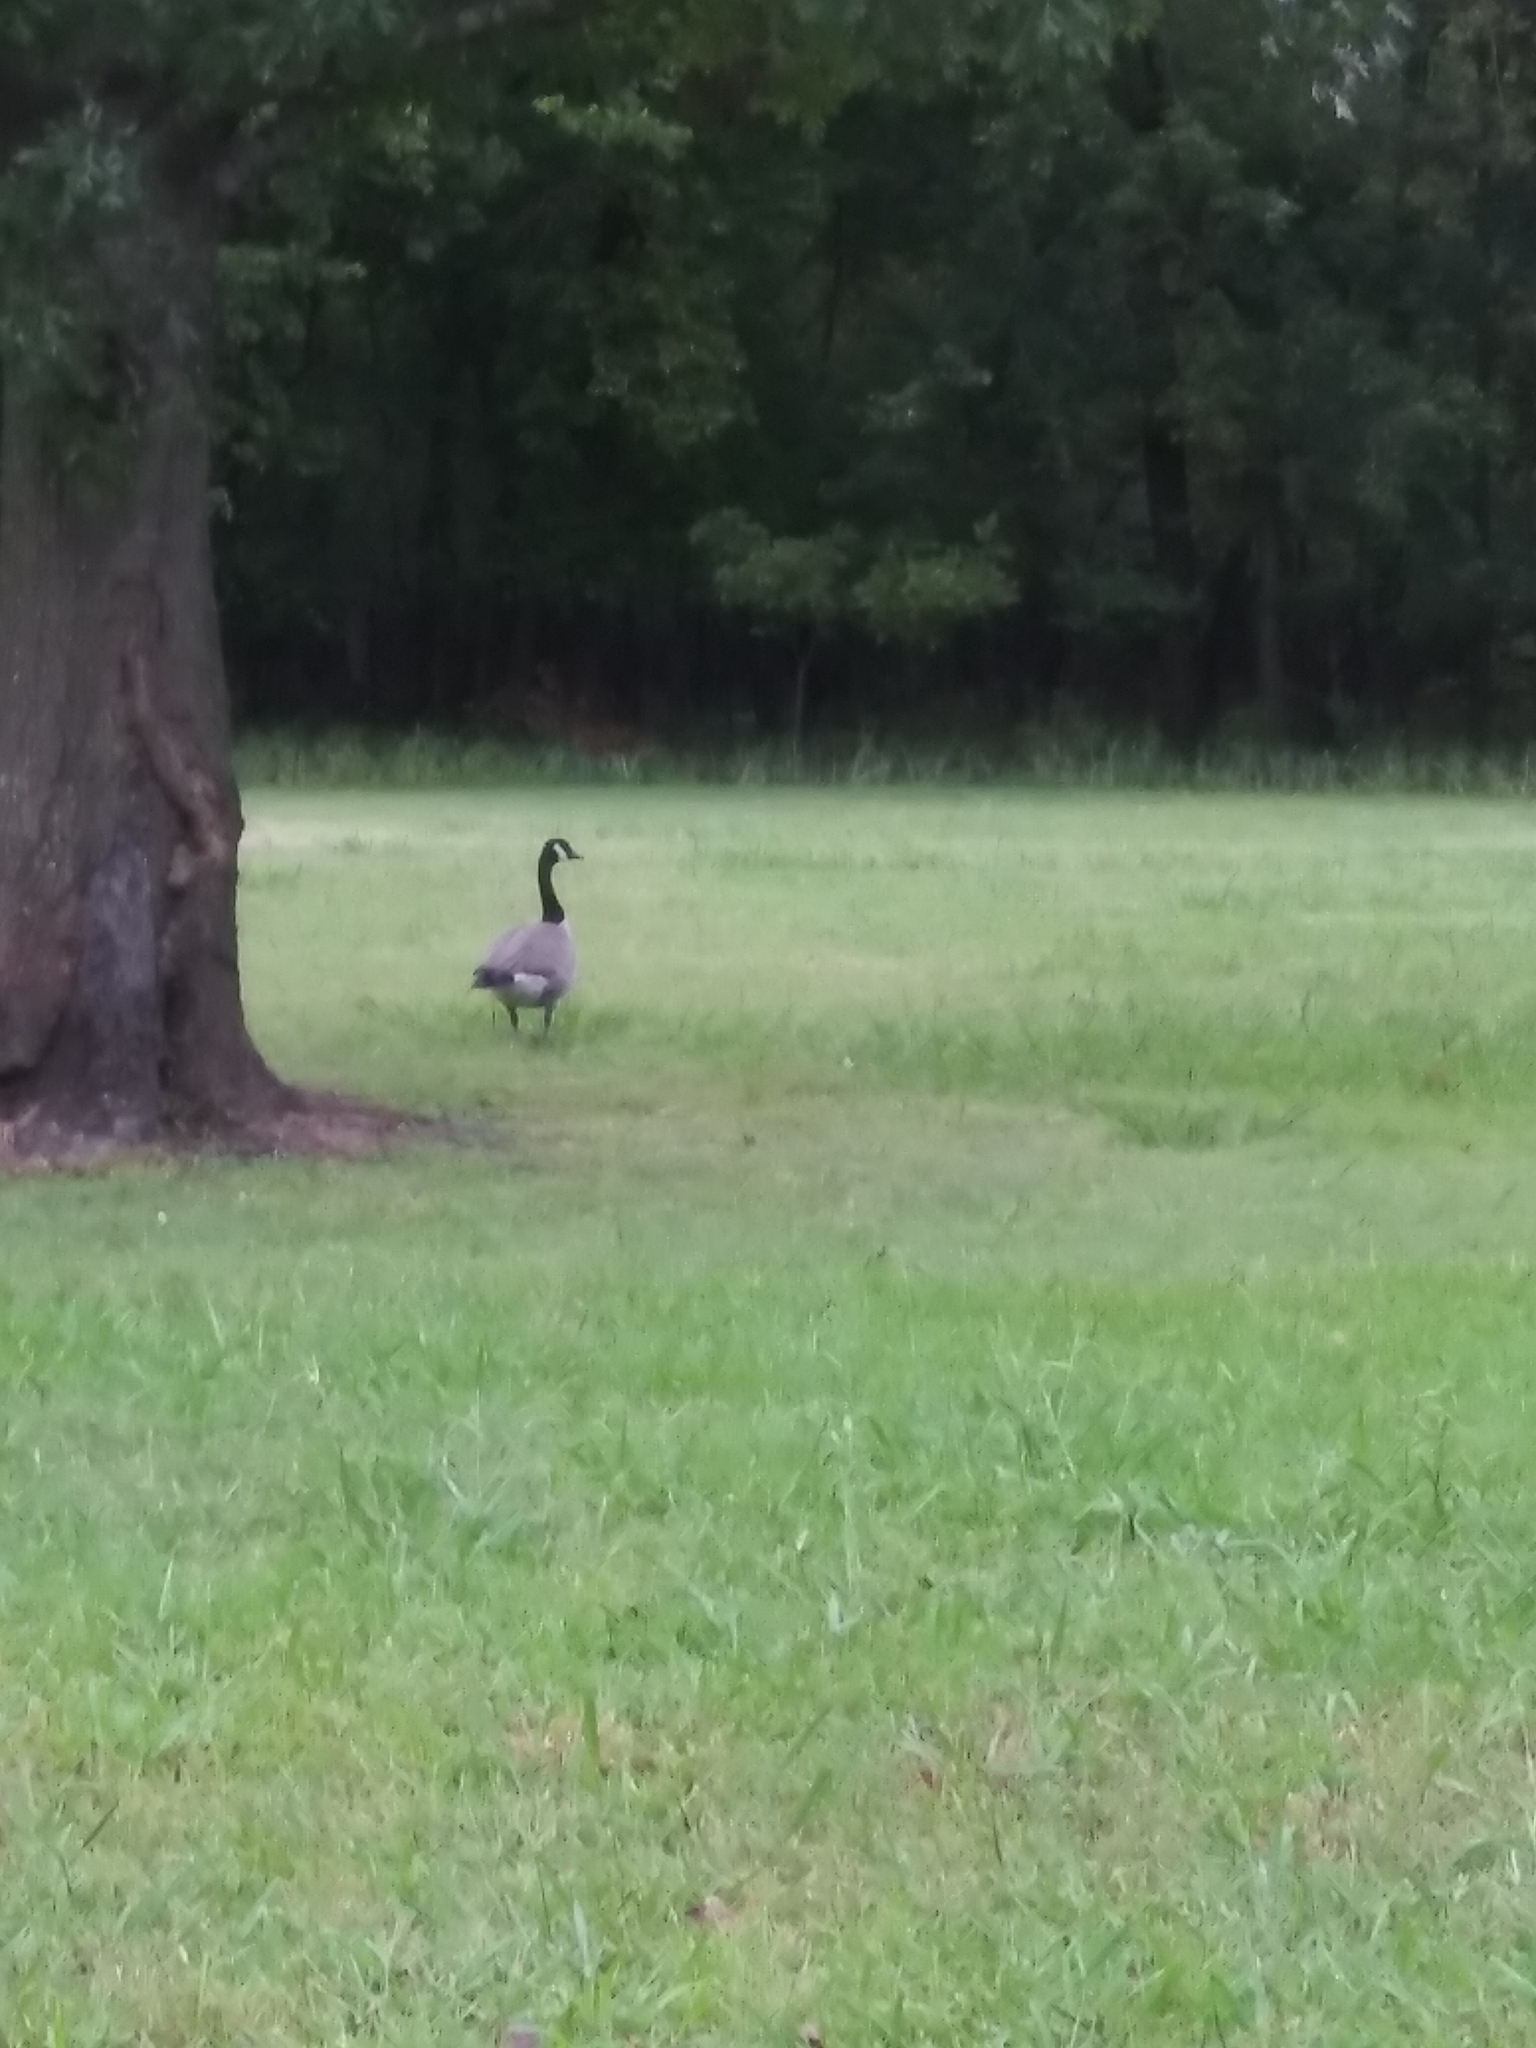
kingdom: Animalia
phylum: Chordata
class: Aves
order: Anseriformes
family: Anatidae
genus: Branta
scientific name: Branta canadensis
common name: Canada goose
